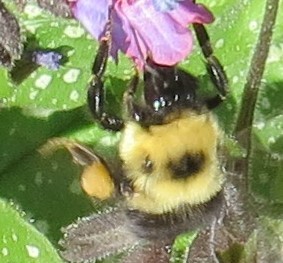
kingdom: Animalia
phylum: Arthropoda
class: Insecta
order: Hymenoptera
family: Apidae
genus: Bombus
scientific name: Bombus bimaculatus
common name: Two-spotted bumble bee
